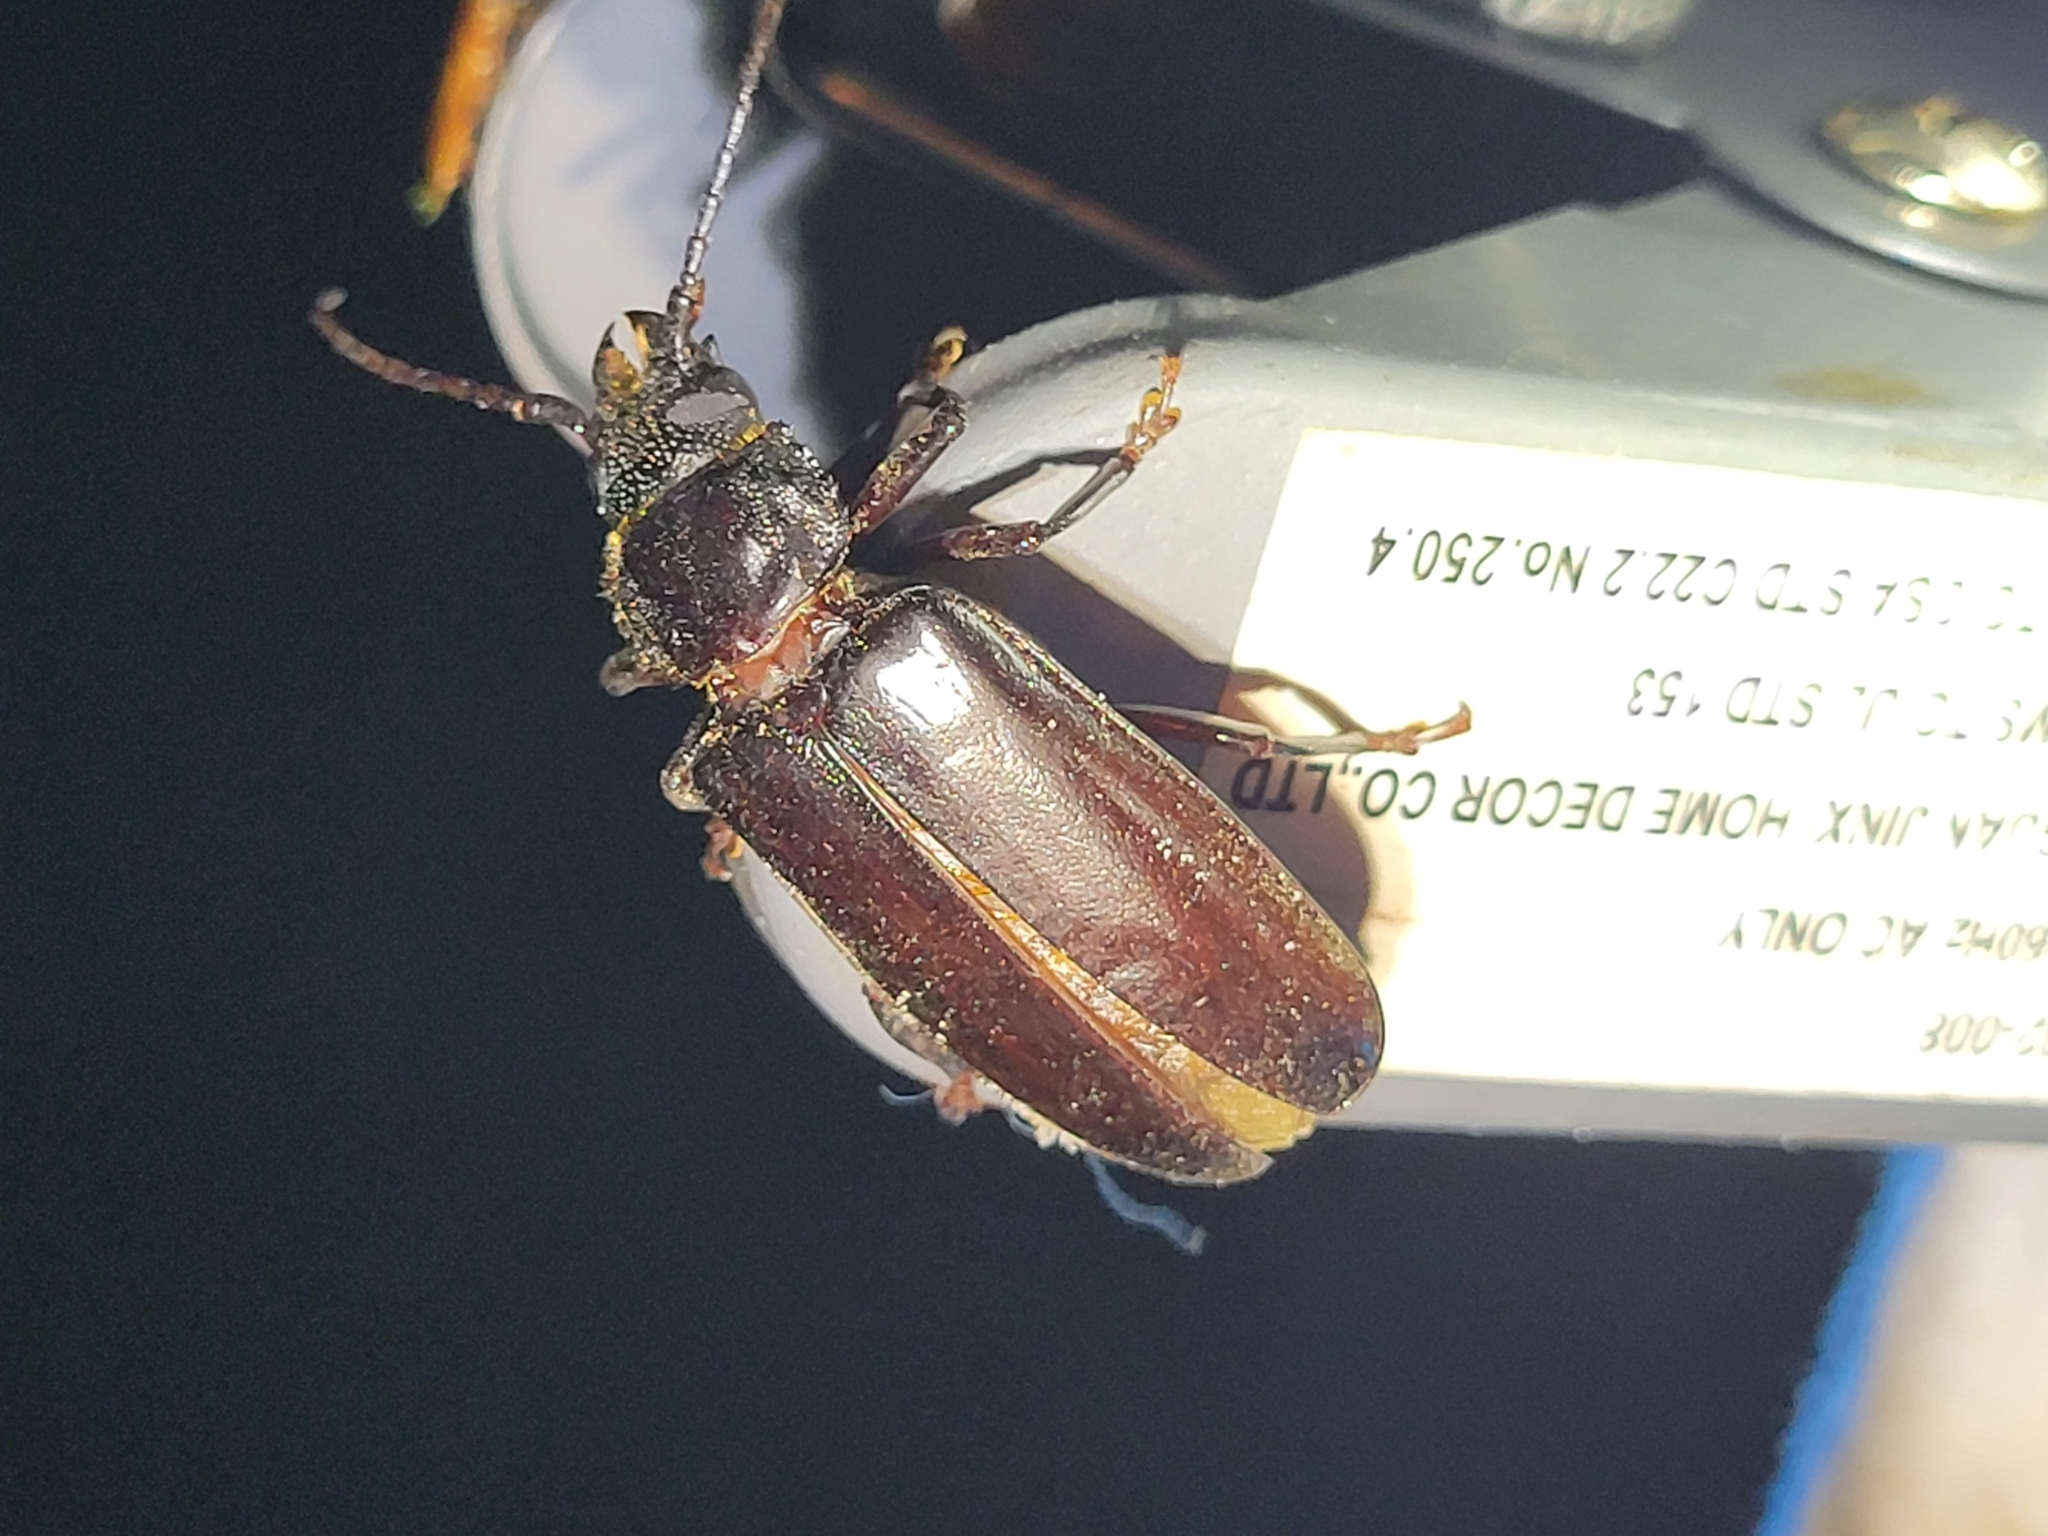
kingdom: Animalia
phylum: Arthropoda
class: Insecta
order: Coleoptera
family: Cerambycidae
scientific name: Cerambycidae
